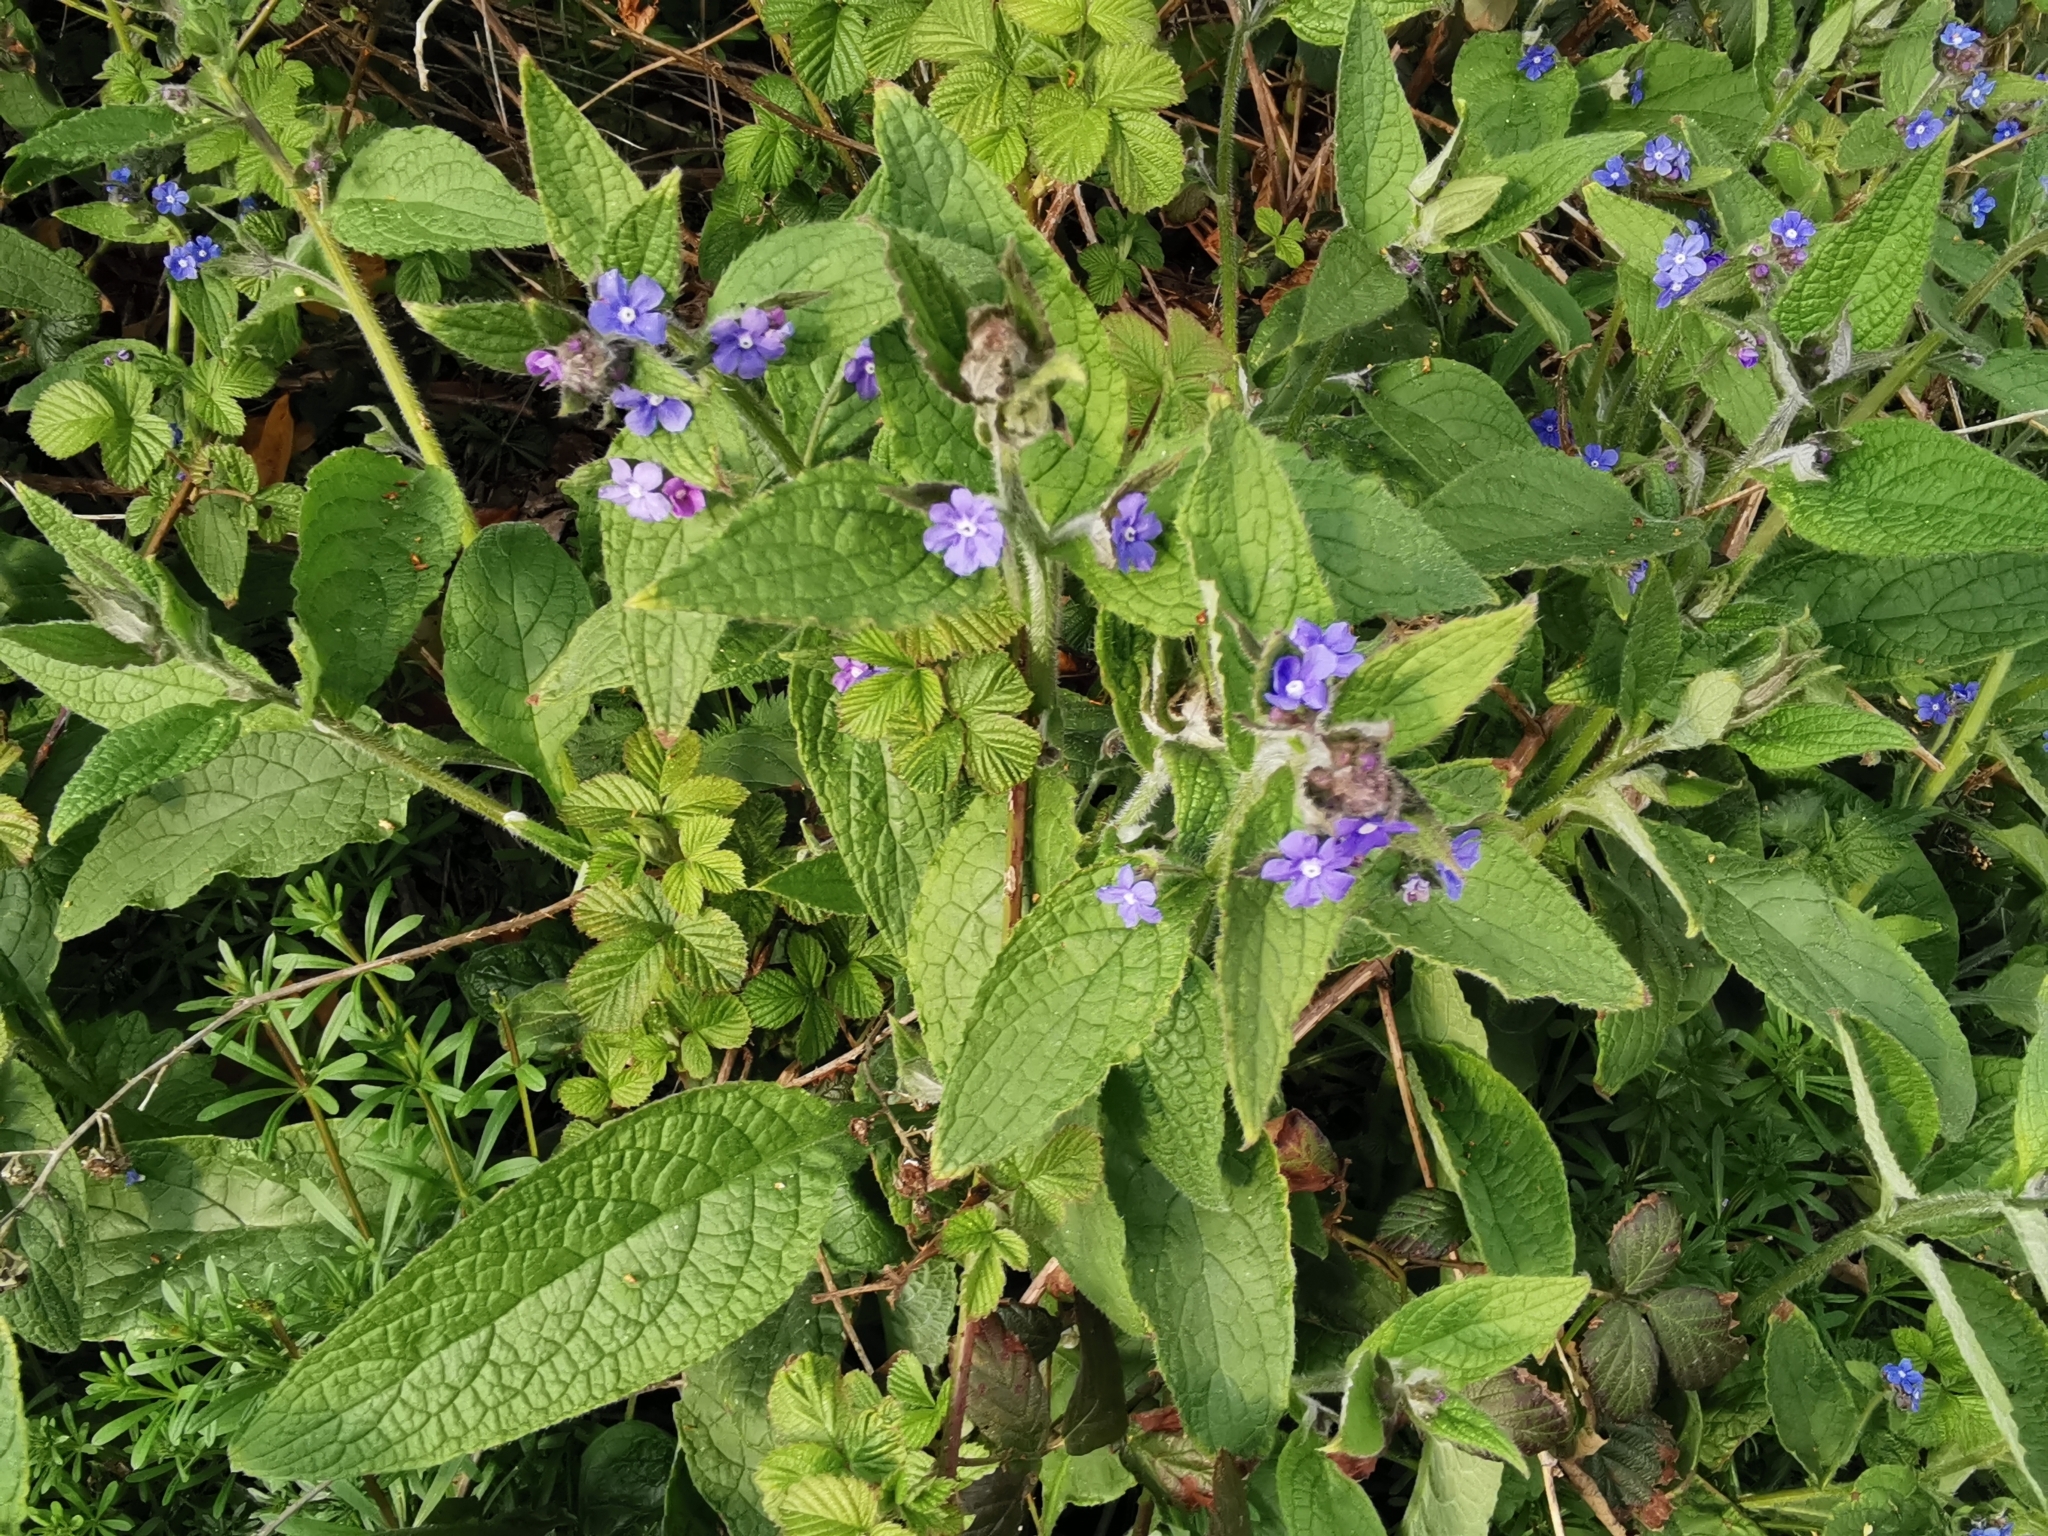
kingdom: Plantae
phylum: Tracheophyta
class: Magnoliopsida
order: Boraginales
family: Boraginaceae
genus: Pentaglottis
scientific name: Pentaglottis sempervirens
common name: Green alkanet
